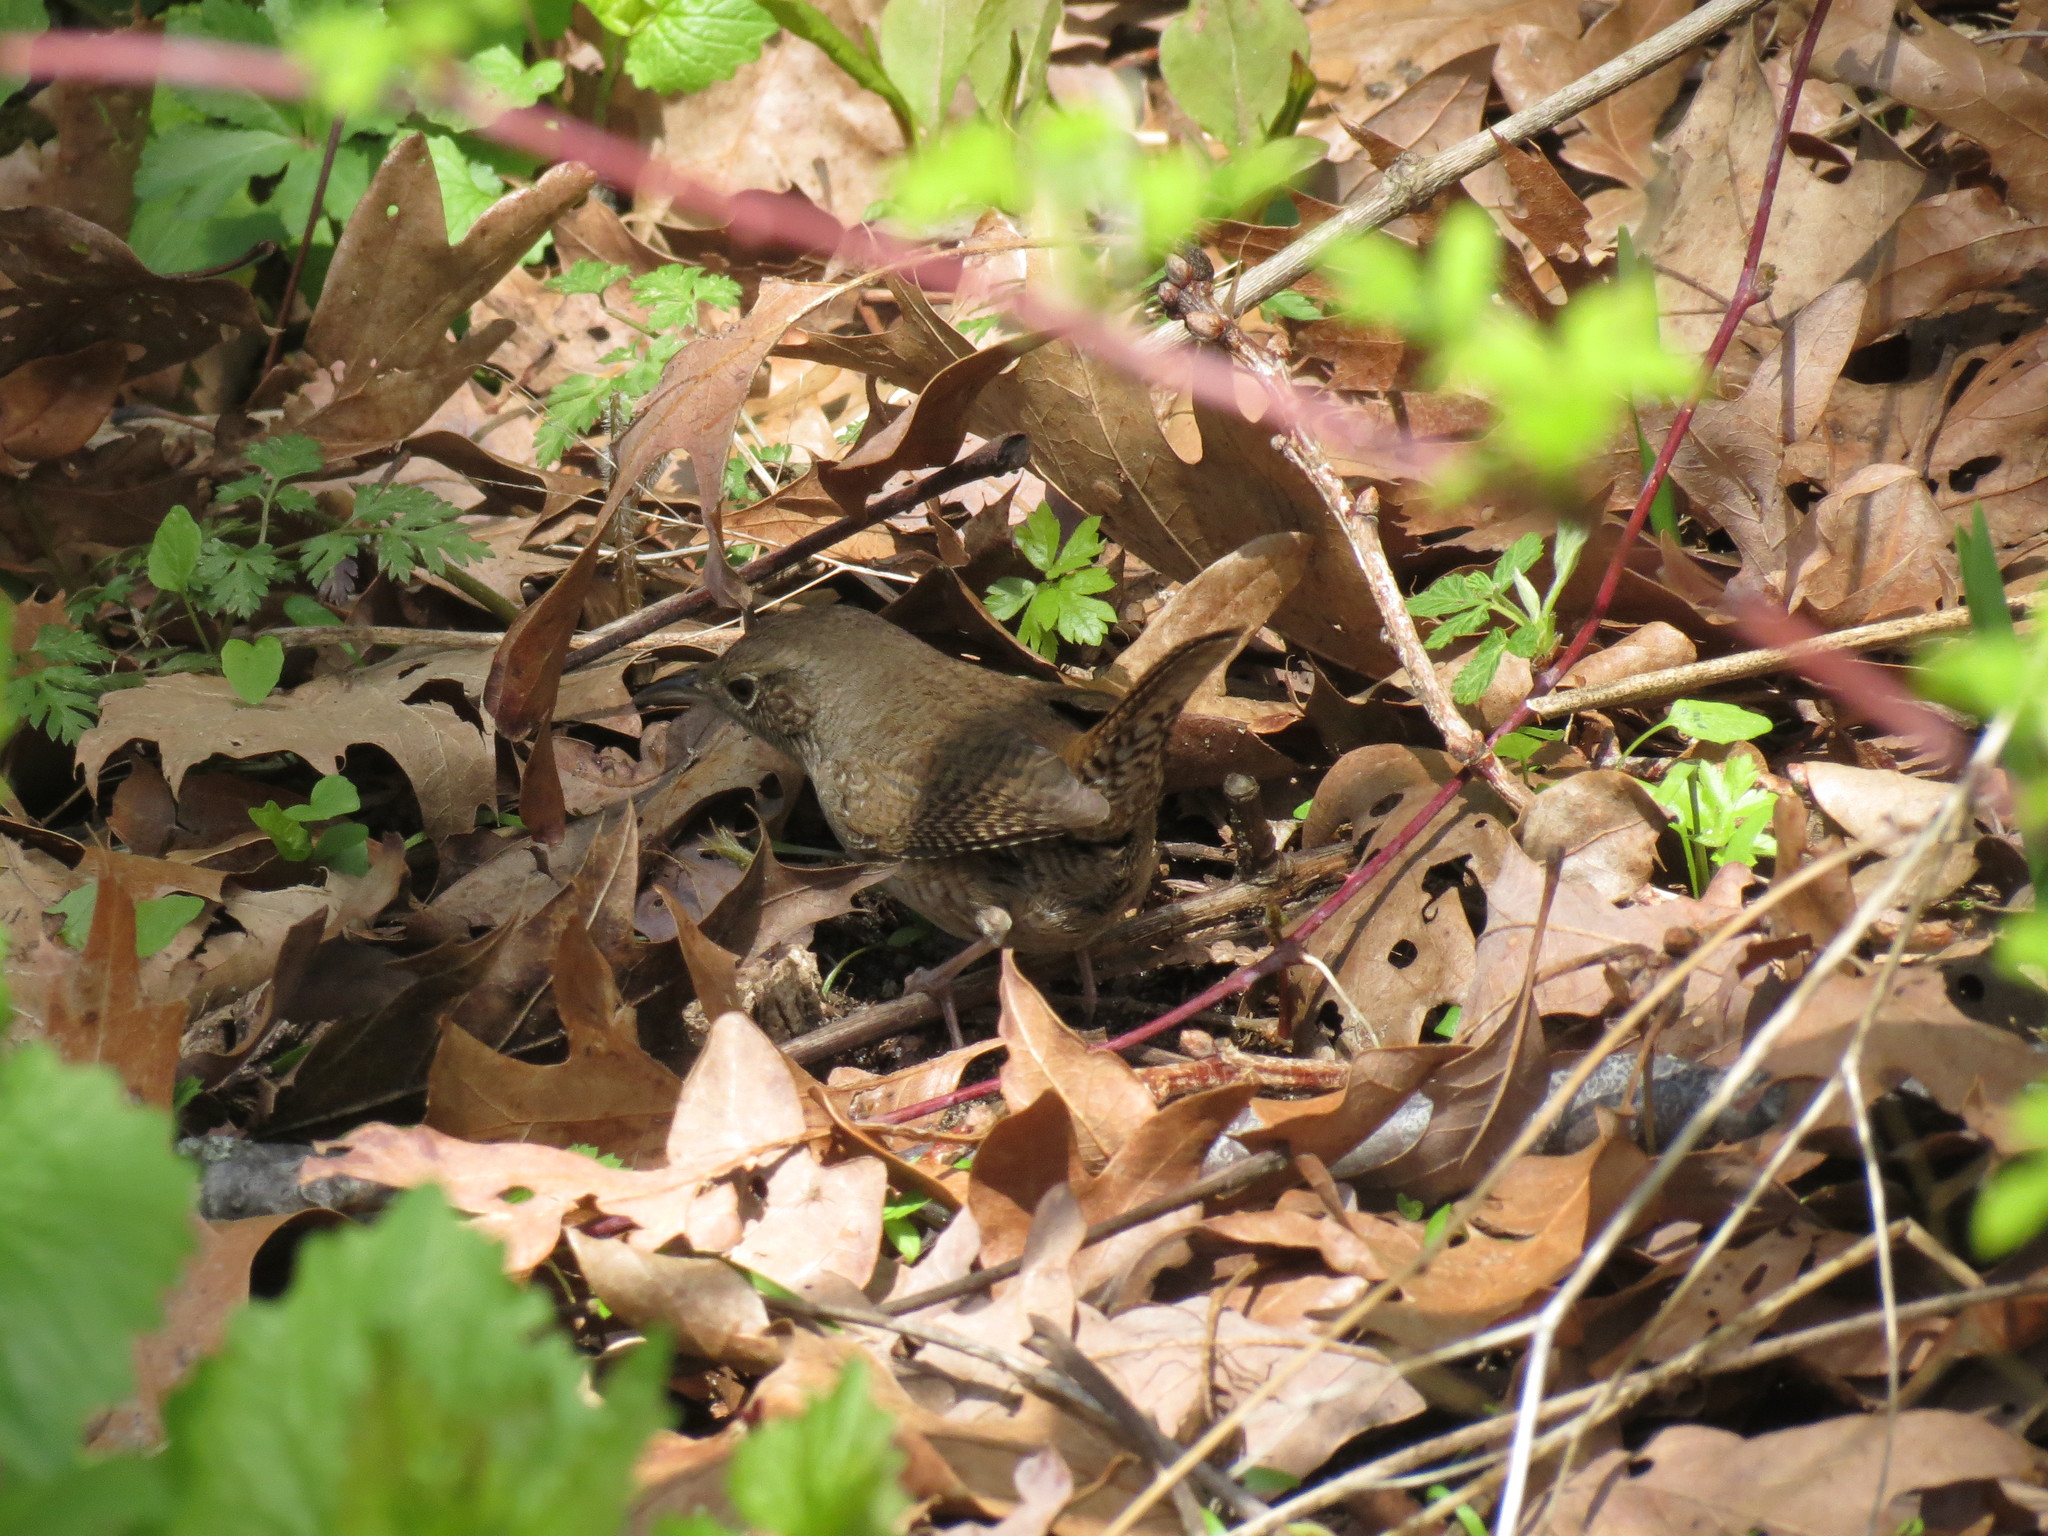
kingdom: Animalia
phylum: Chordata
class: Aves
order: Passeriformes
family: Troglodytidae
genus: Troglodytes
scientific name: Troglodytes aedon
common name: House wren
